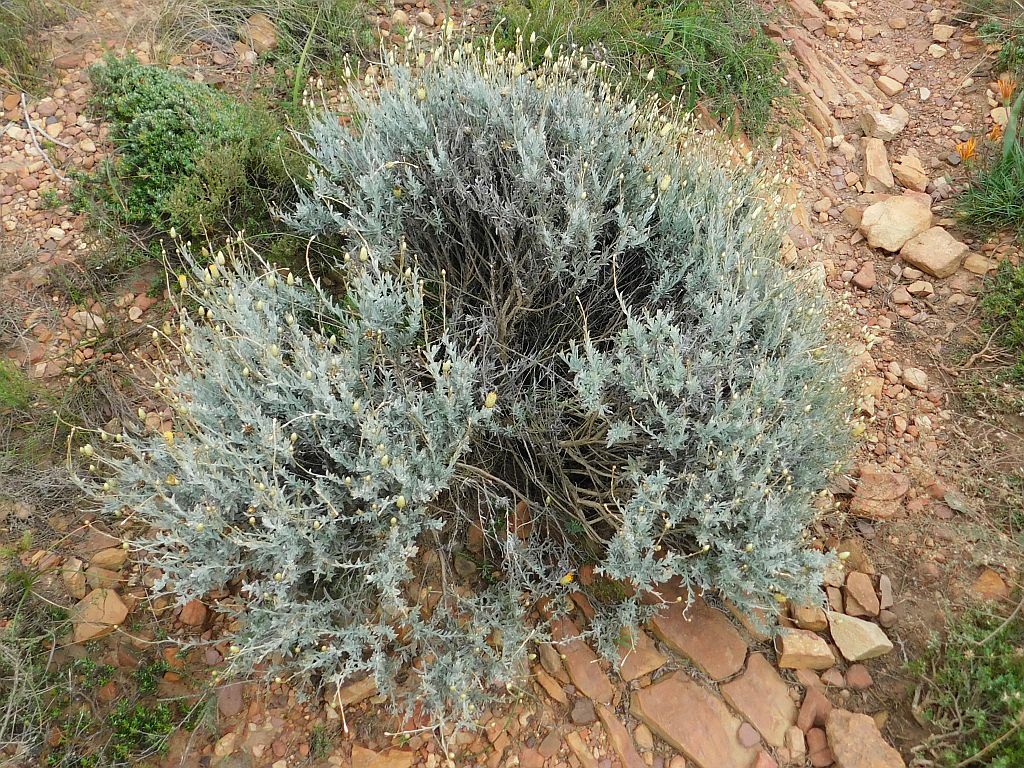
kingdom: Plantae
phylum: Tracheophyta
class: Magnoliopsida
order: Asterales
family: Asteraceae
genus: Syncarpha
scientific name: Syncarpha staehelina
